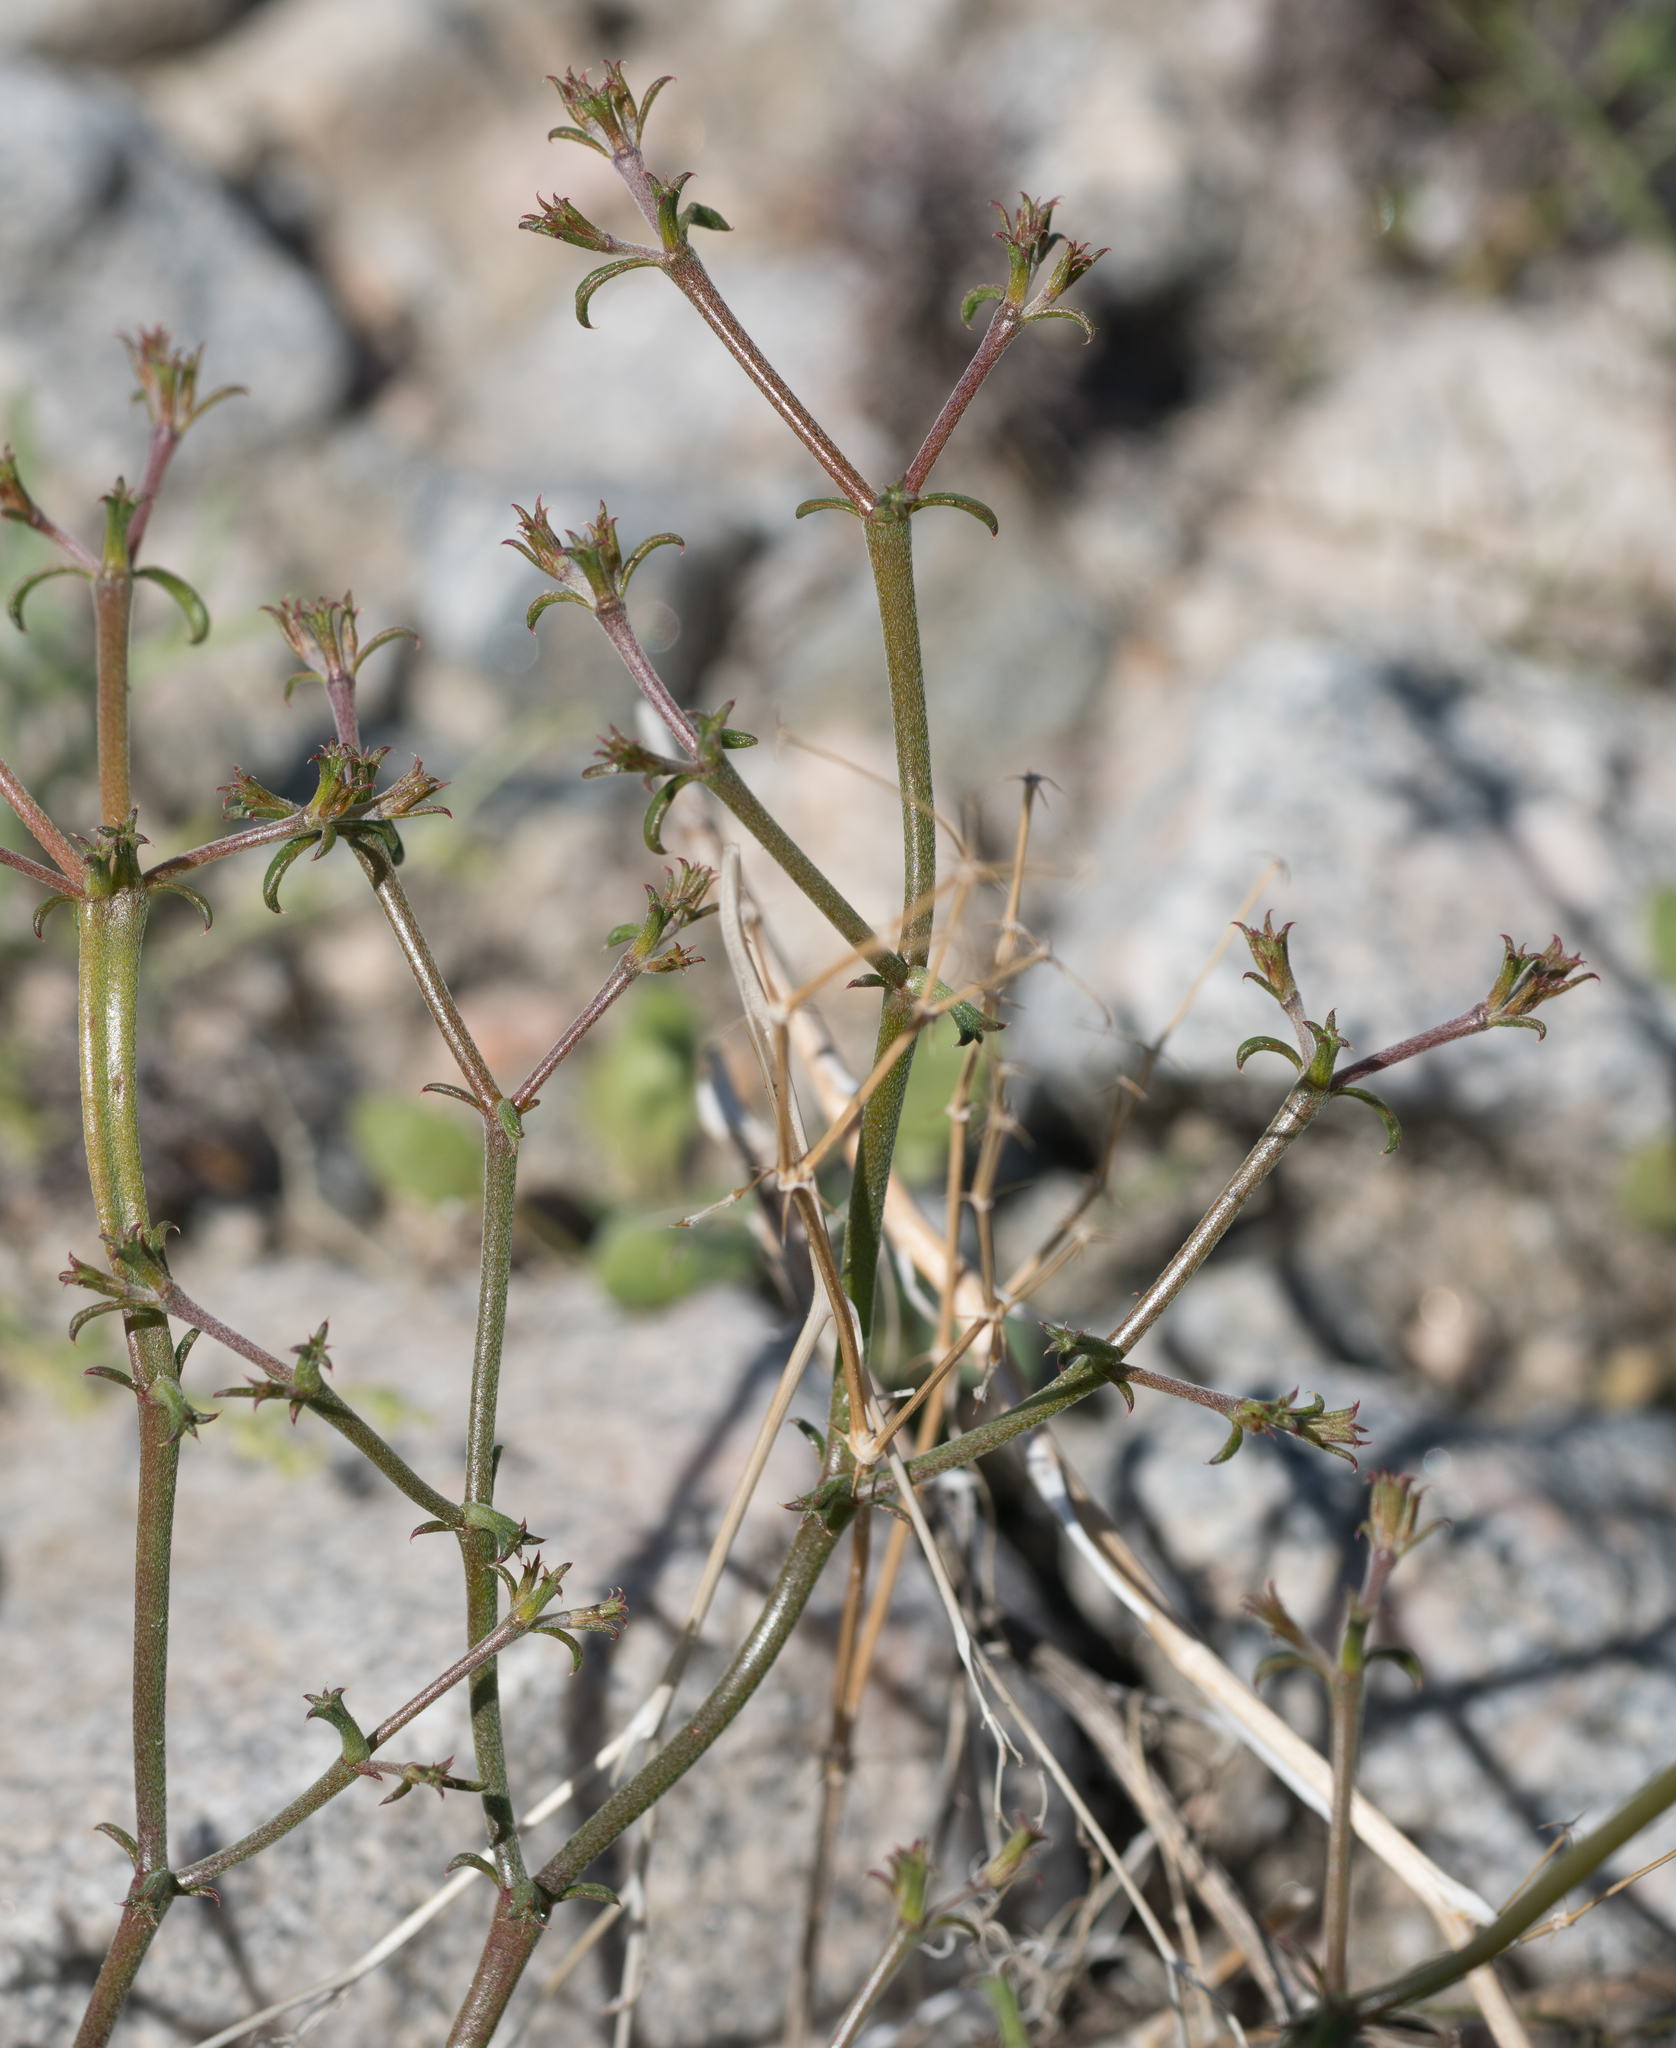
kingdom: Plantae
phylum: Tracheophyta
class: Magnoliopsida
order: Caryophyllales
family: Polygonaceae
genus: Chorizanthe
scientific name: Chorizanthe brevicornu
